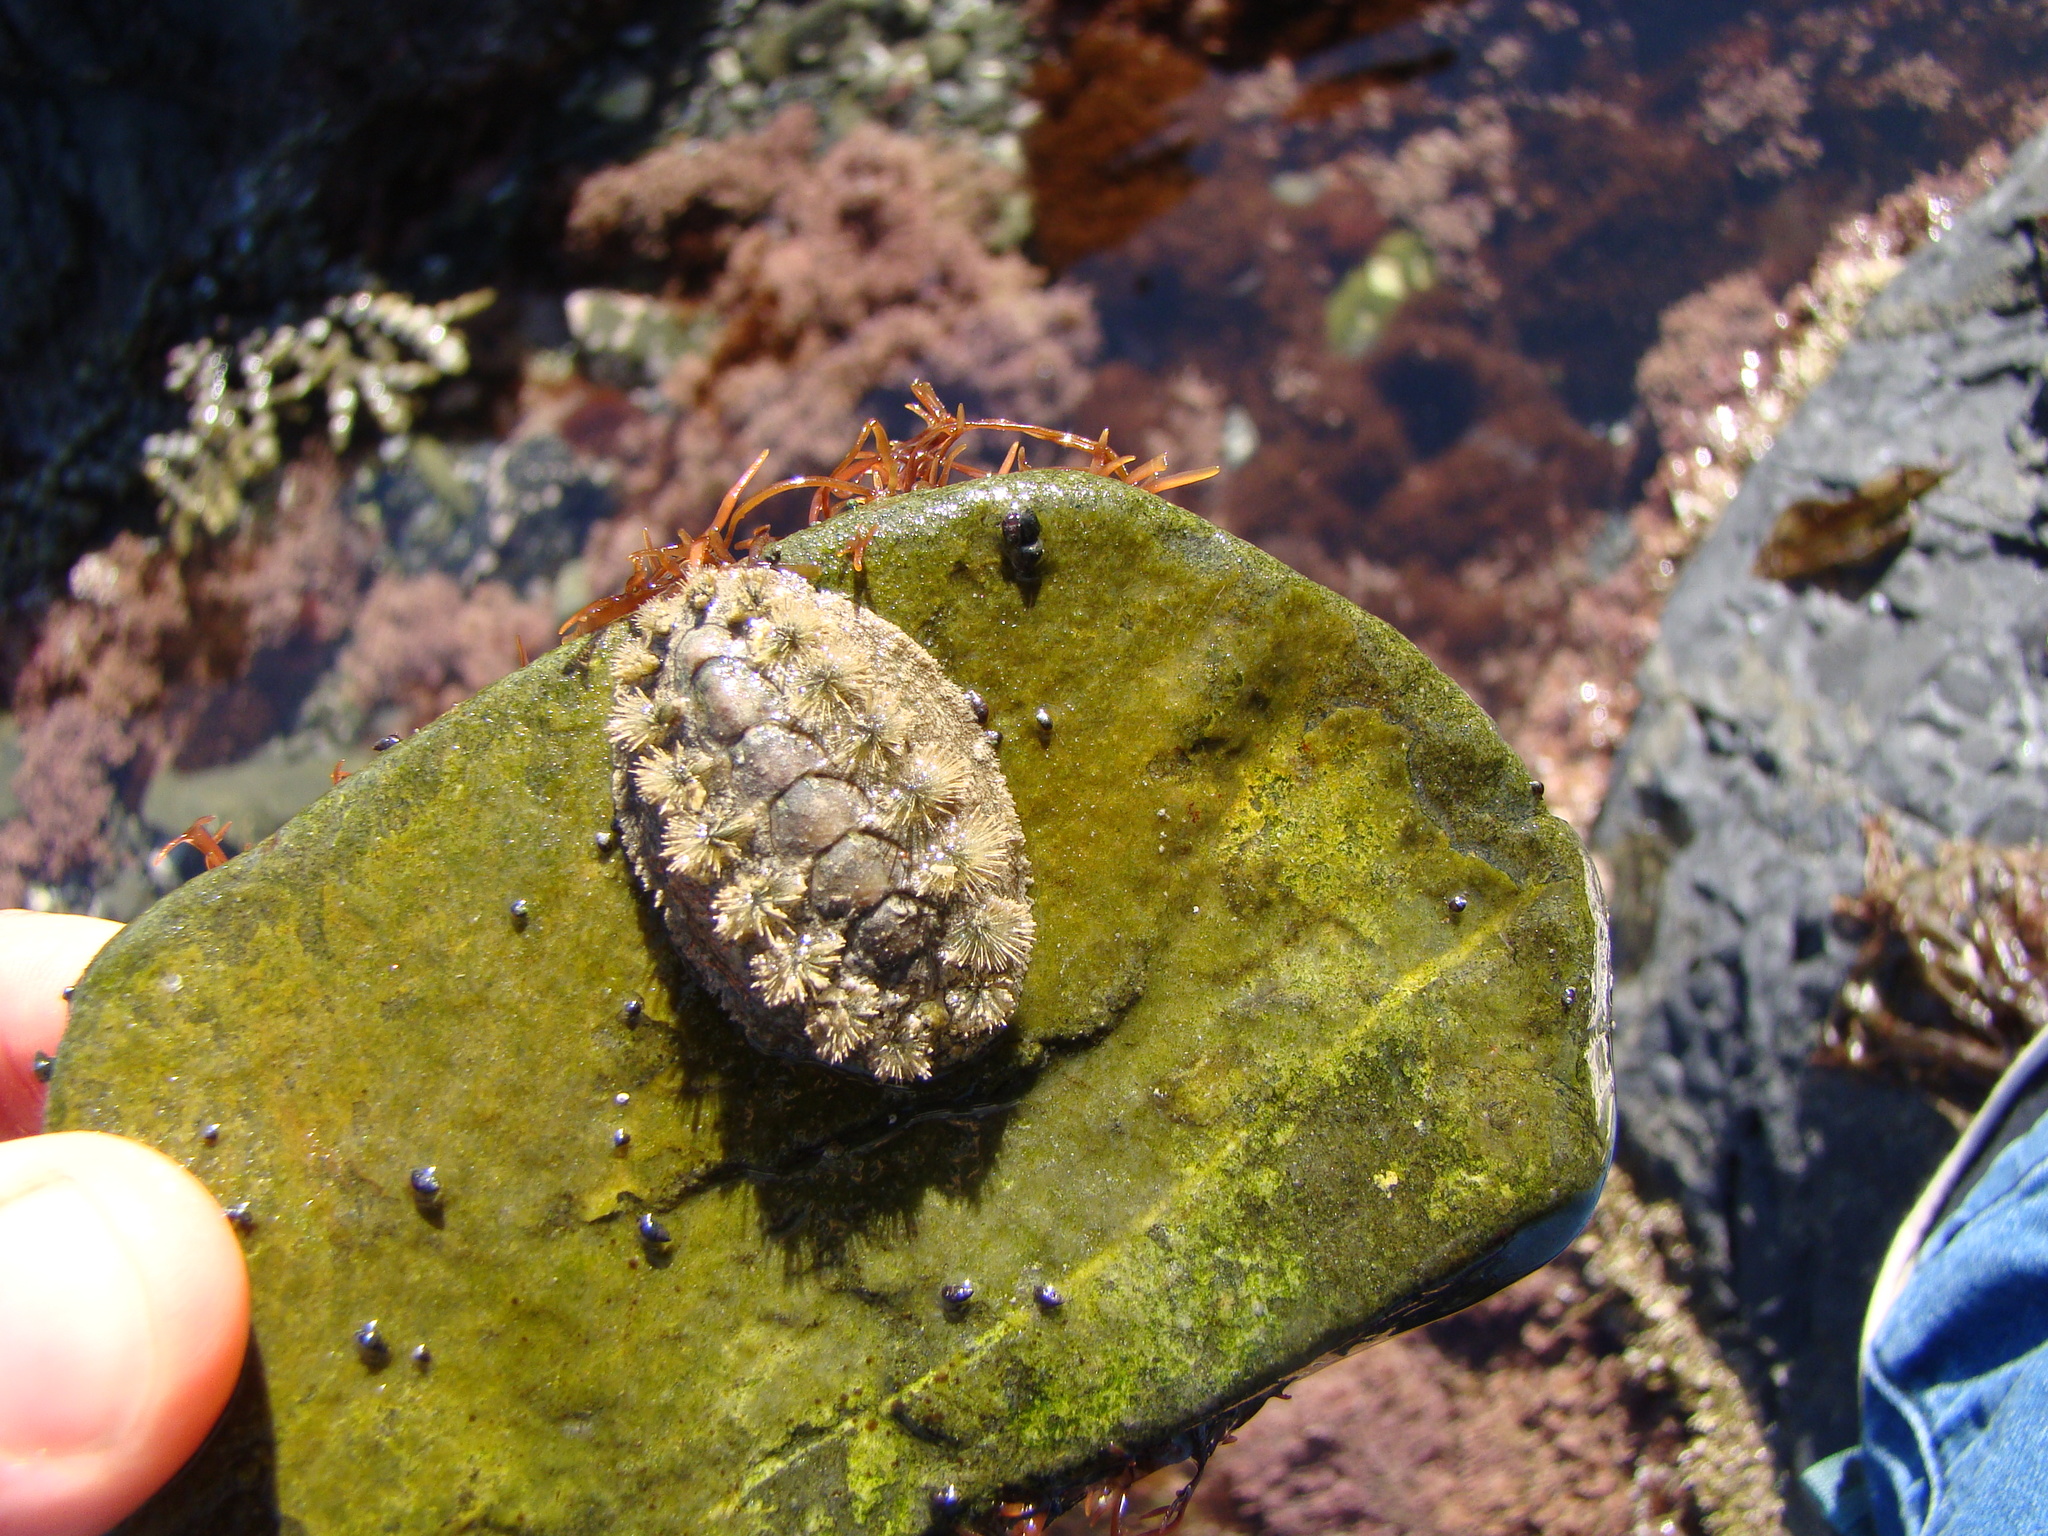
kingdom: Animalia
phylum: Mollusca
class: Polyplacophora
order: Chitonida
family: Acanthochitonidae
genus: Acanthochitona
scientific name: Acanthochitona zelandica
